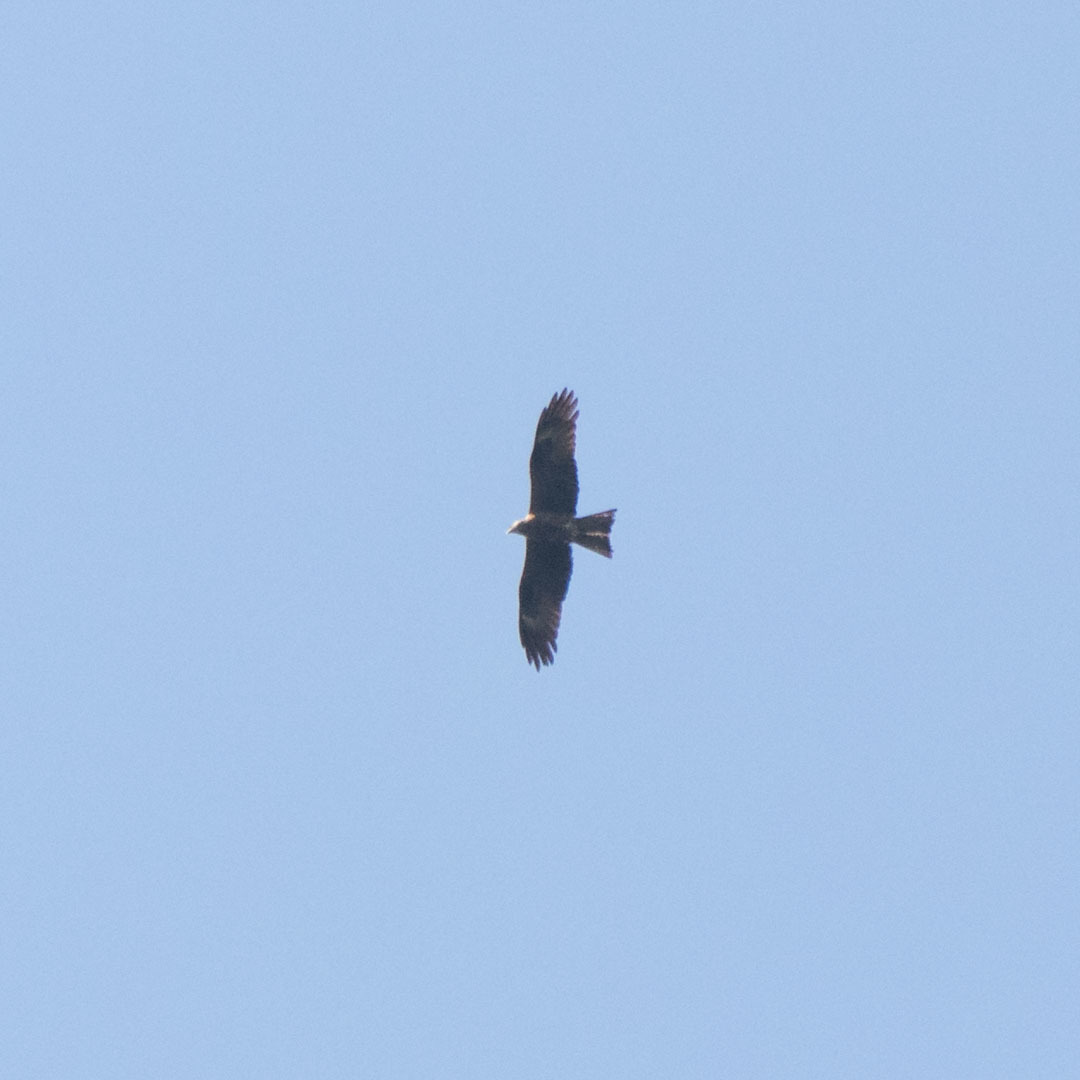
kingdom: Animalia
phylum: Chordata
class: Aves
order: Accipitriformes
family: Accipitridae
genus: Milvus
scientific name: Milvus migrans
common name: Black kite
